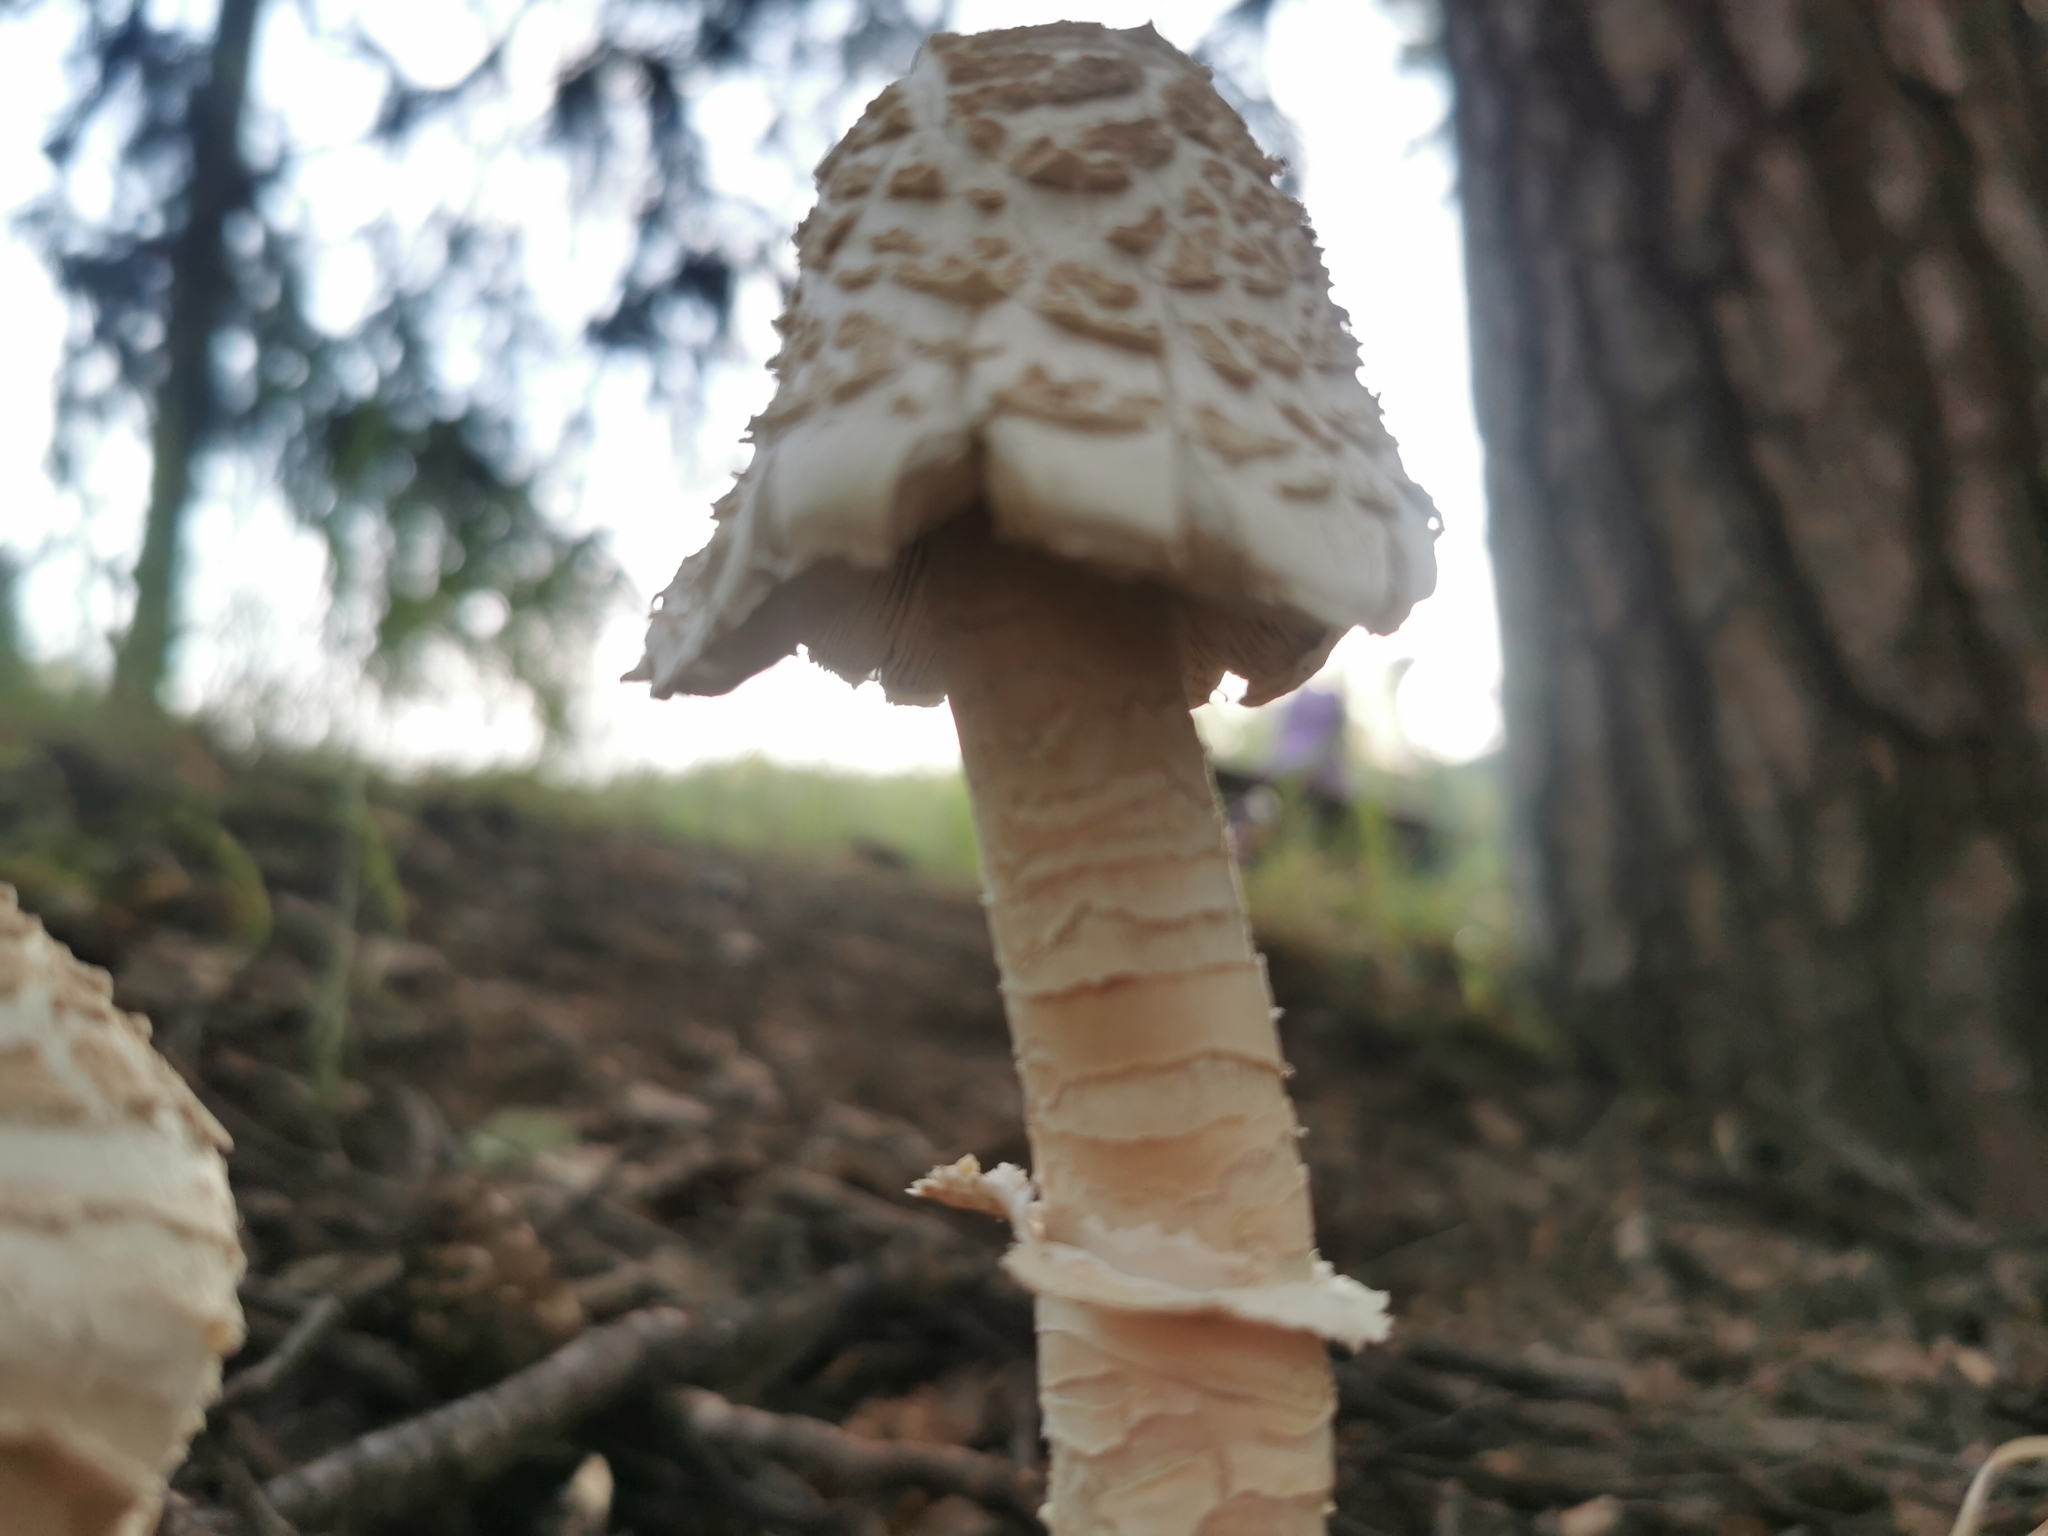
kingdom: Fungi
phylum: Basidiomycota
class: Agaricomycetes
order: Agaricales
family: Agaricaceae
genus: Macrolepiota
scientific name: Macrolepiota procera
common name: Parasol
